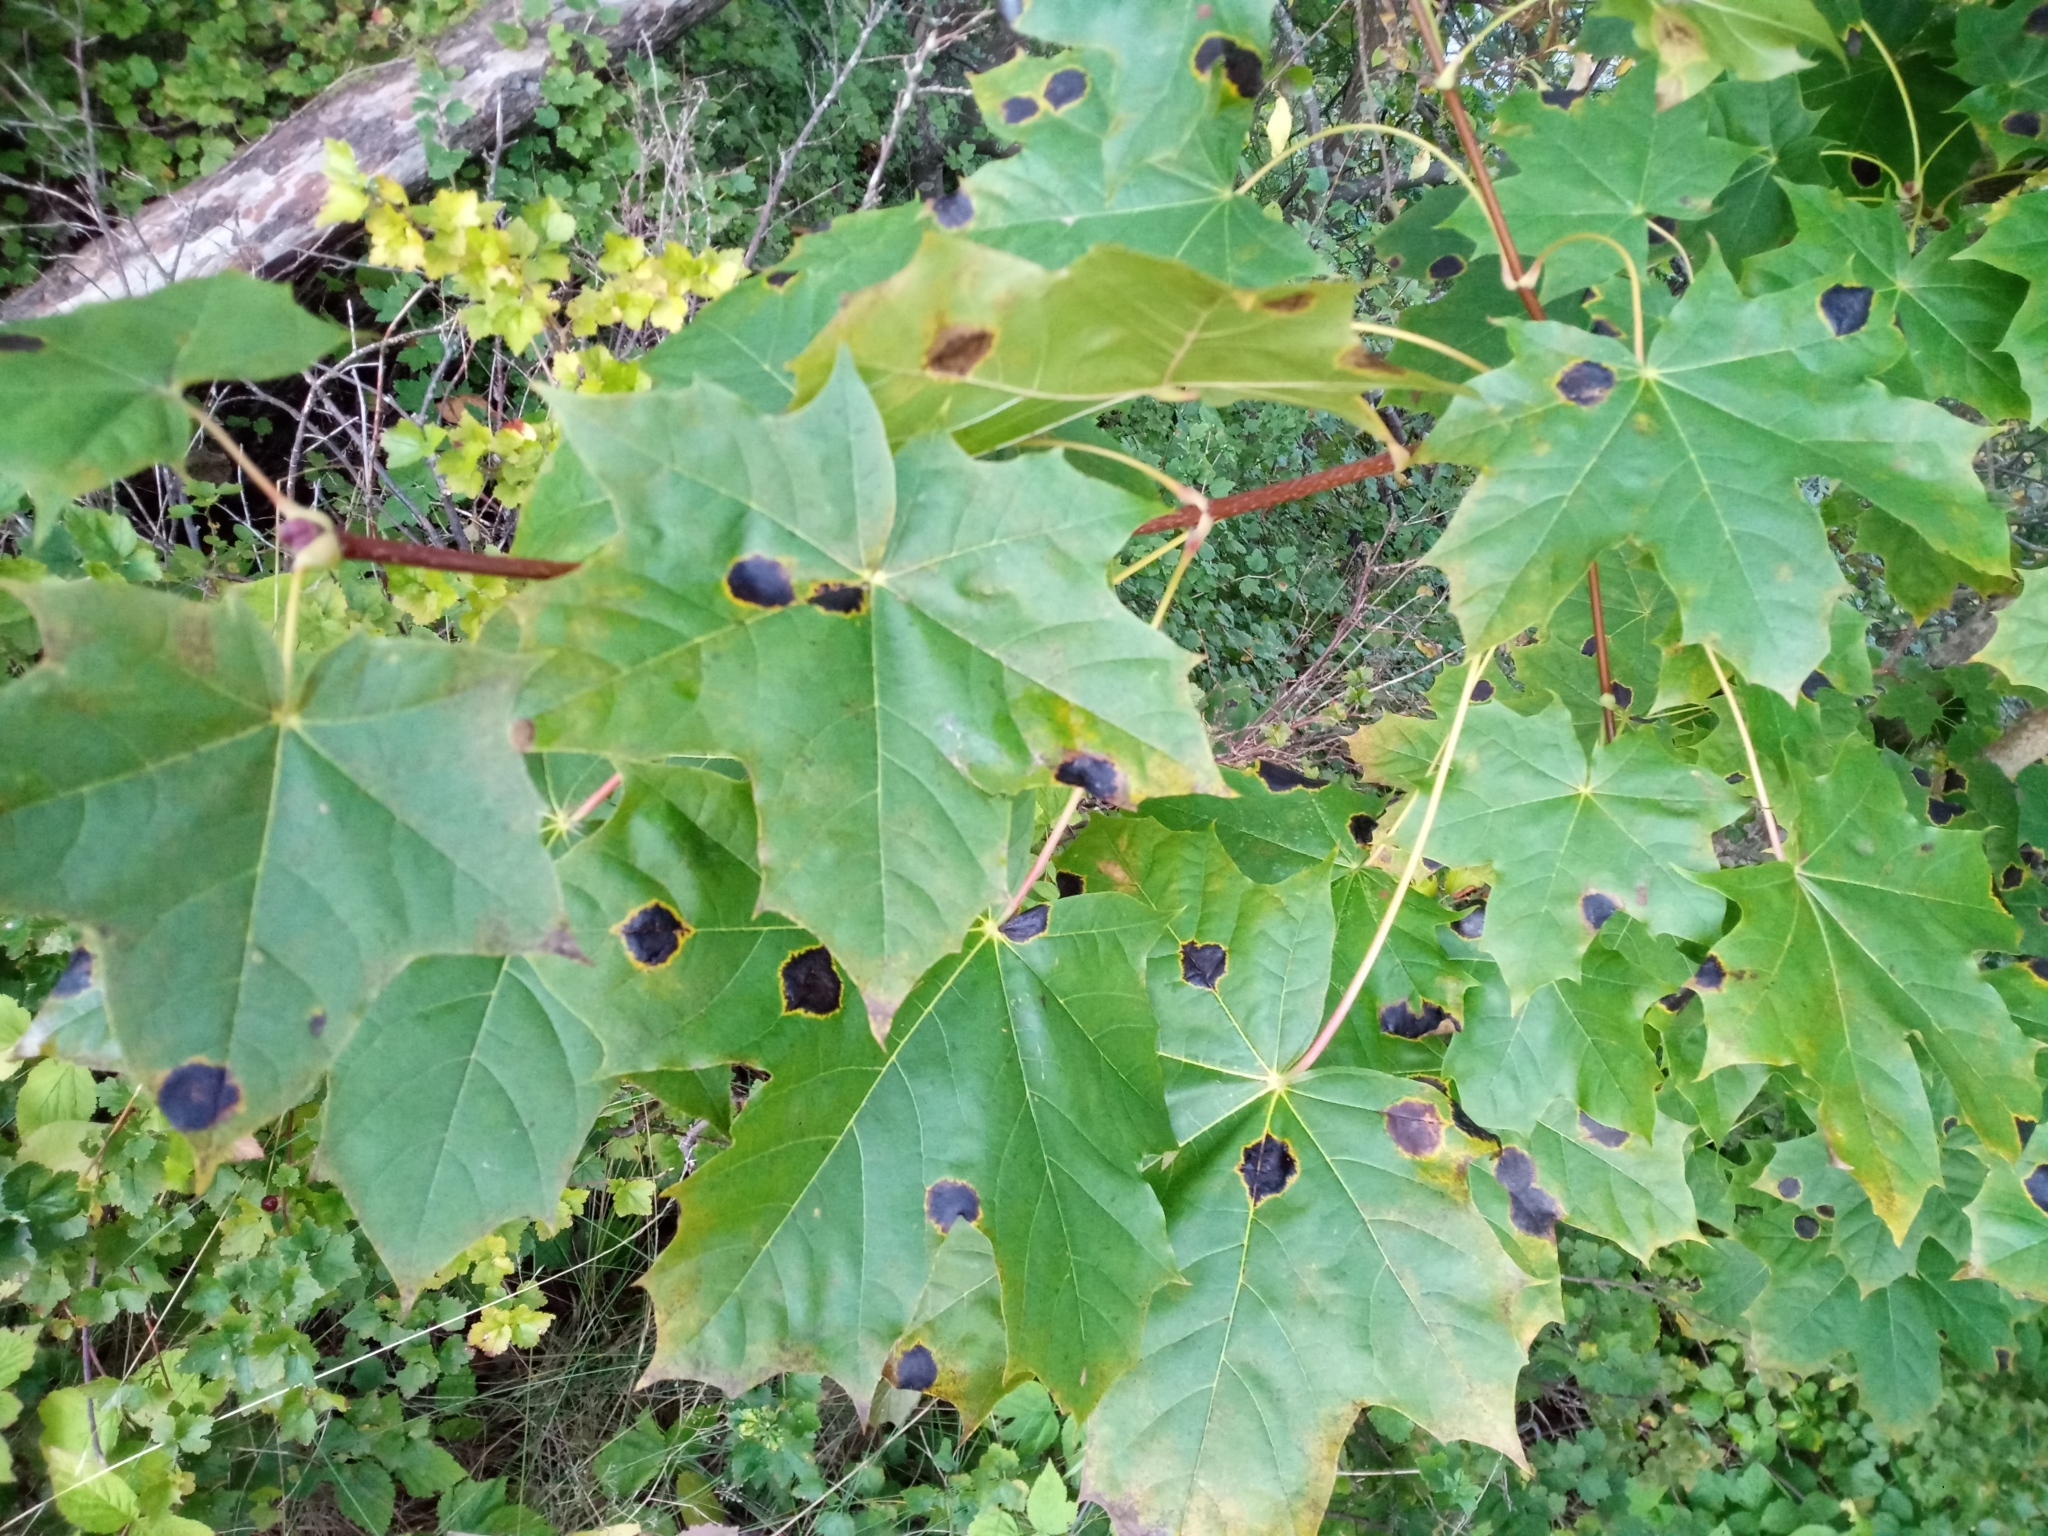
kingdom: Fungi
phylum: Ascomycota
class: Leotiomycetes
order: Rhytismatales
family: Rhytismataceae
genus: Rhytisma
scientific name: Rhytisma acerinum
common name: European tar spot
